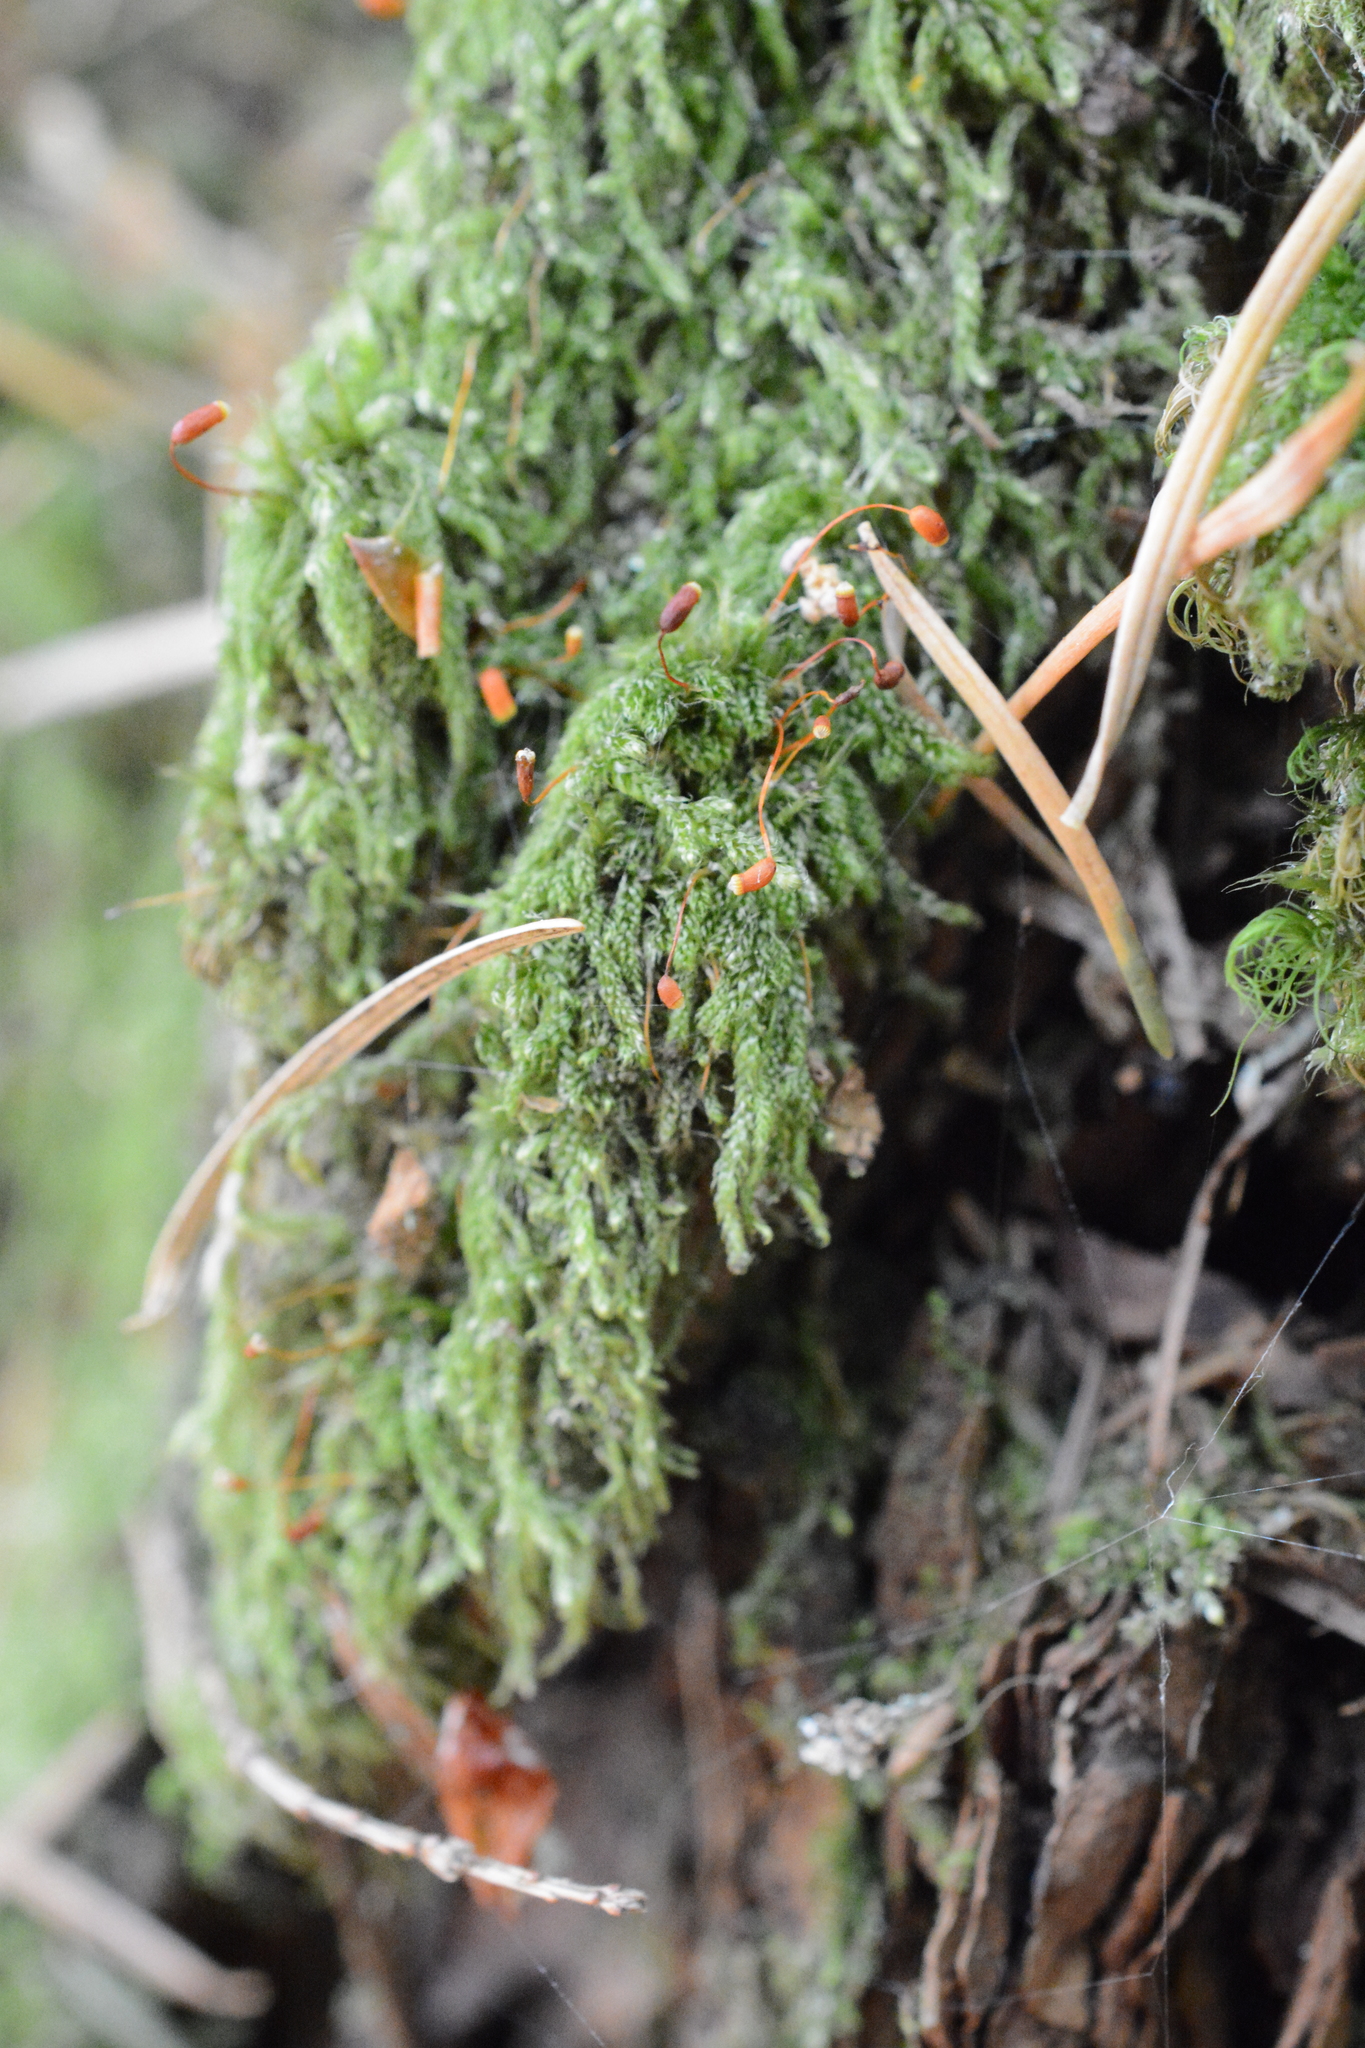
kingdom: Plantae
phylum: Bryophyta
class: Bryopsida
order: Hypnales
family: Pylaisiadelphaceae
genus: Trochophyllohypnum
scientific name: Trochophyllohypnum circinale
